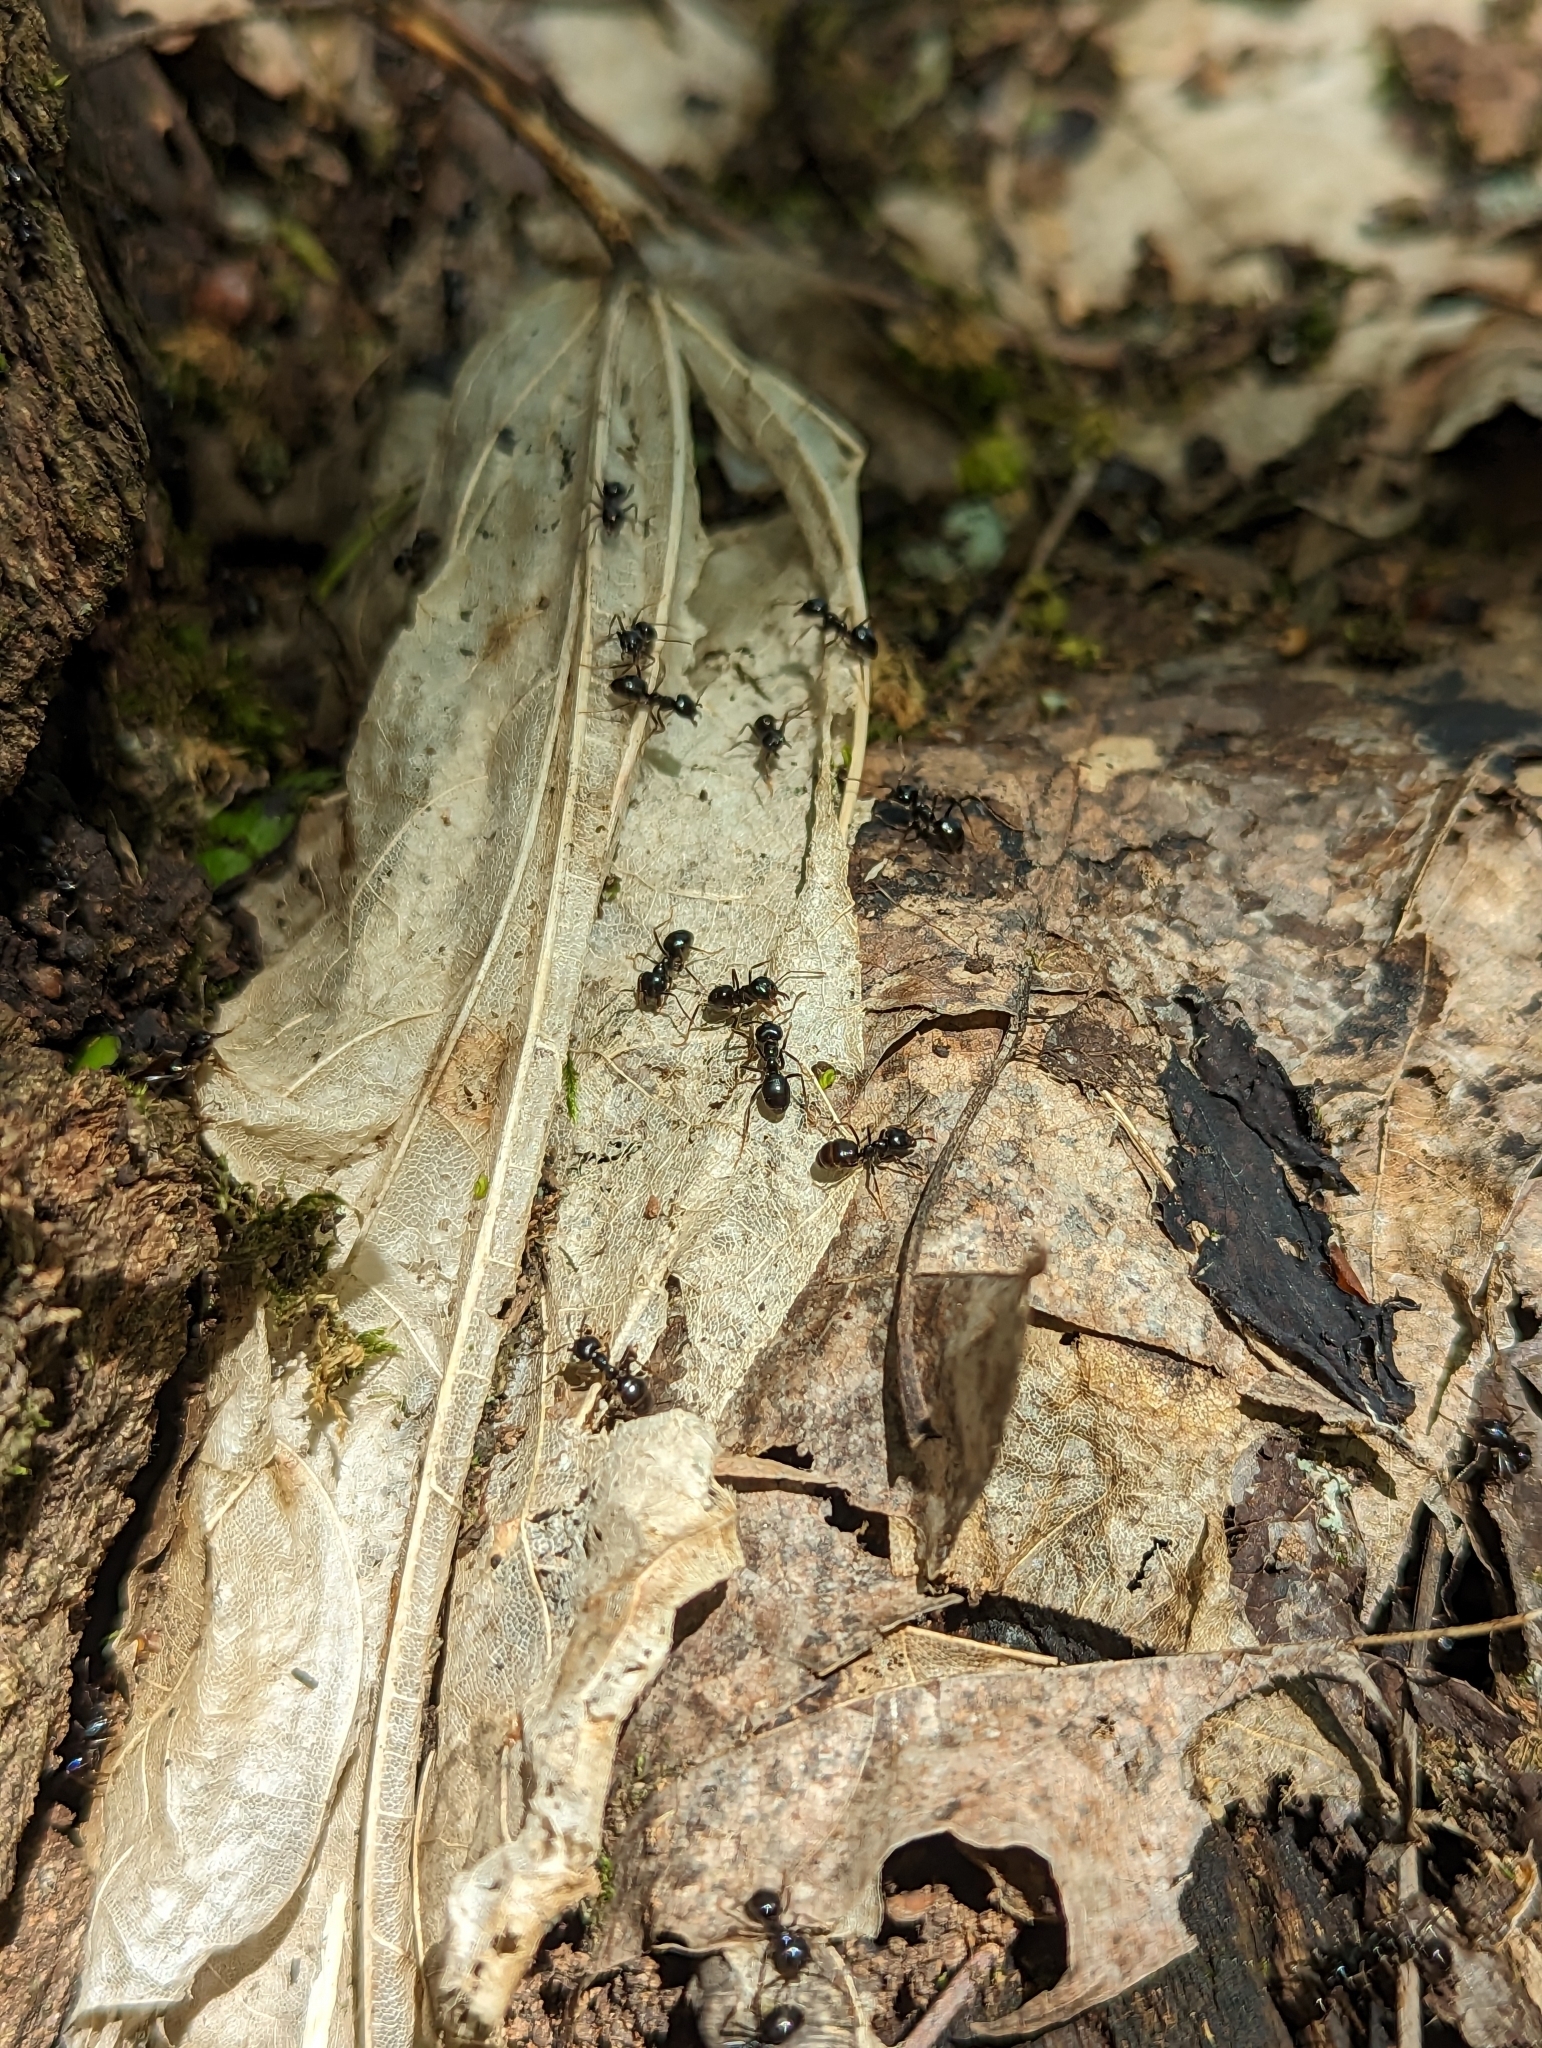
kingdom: Animalia
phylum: Arthropoda
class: Insecta
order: Hymenoptera
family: Formicidae
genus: Lasius
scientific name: Lasius fuliginosus
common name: Jet ant
